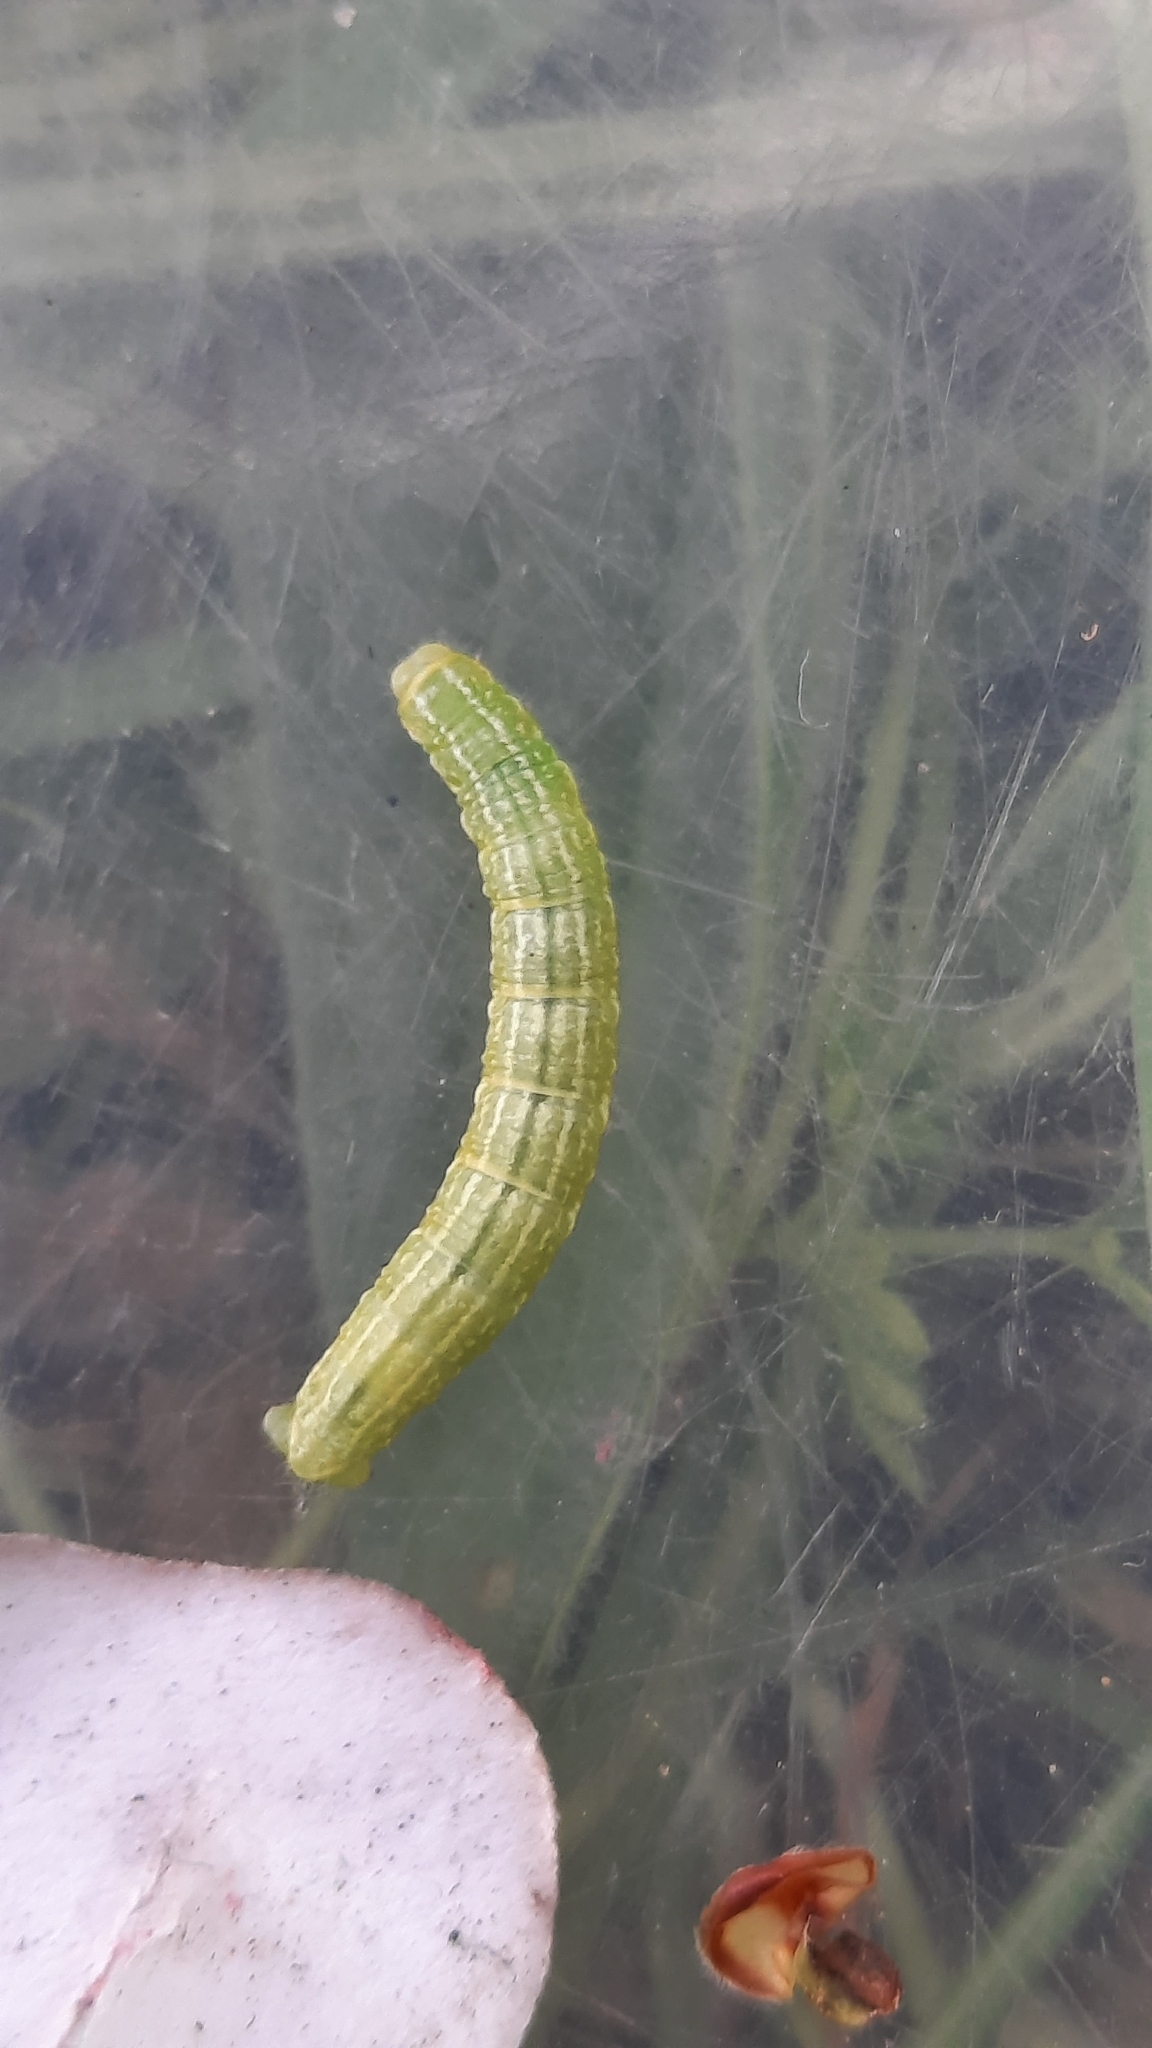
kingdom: Animalia
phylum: Arthropoda
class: Insecta
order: Lepidoptera
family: Geometridae
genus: Operophtera
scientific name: Operophtera brumata
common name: Winter moth
